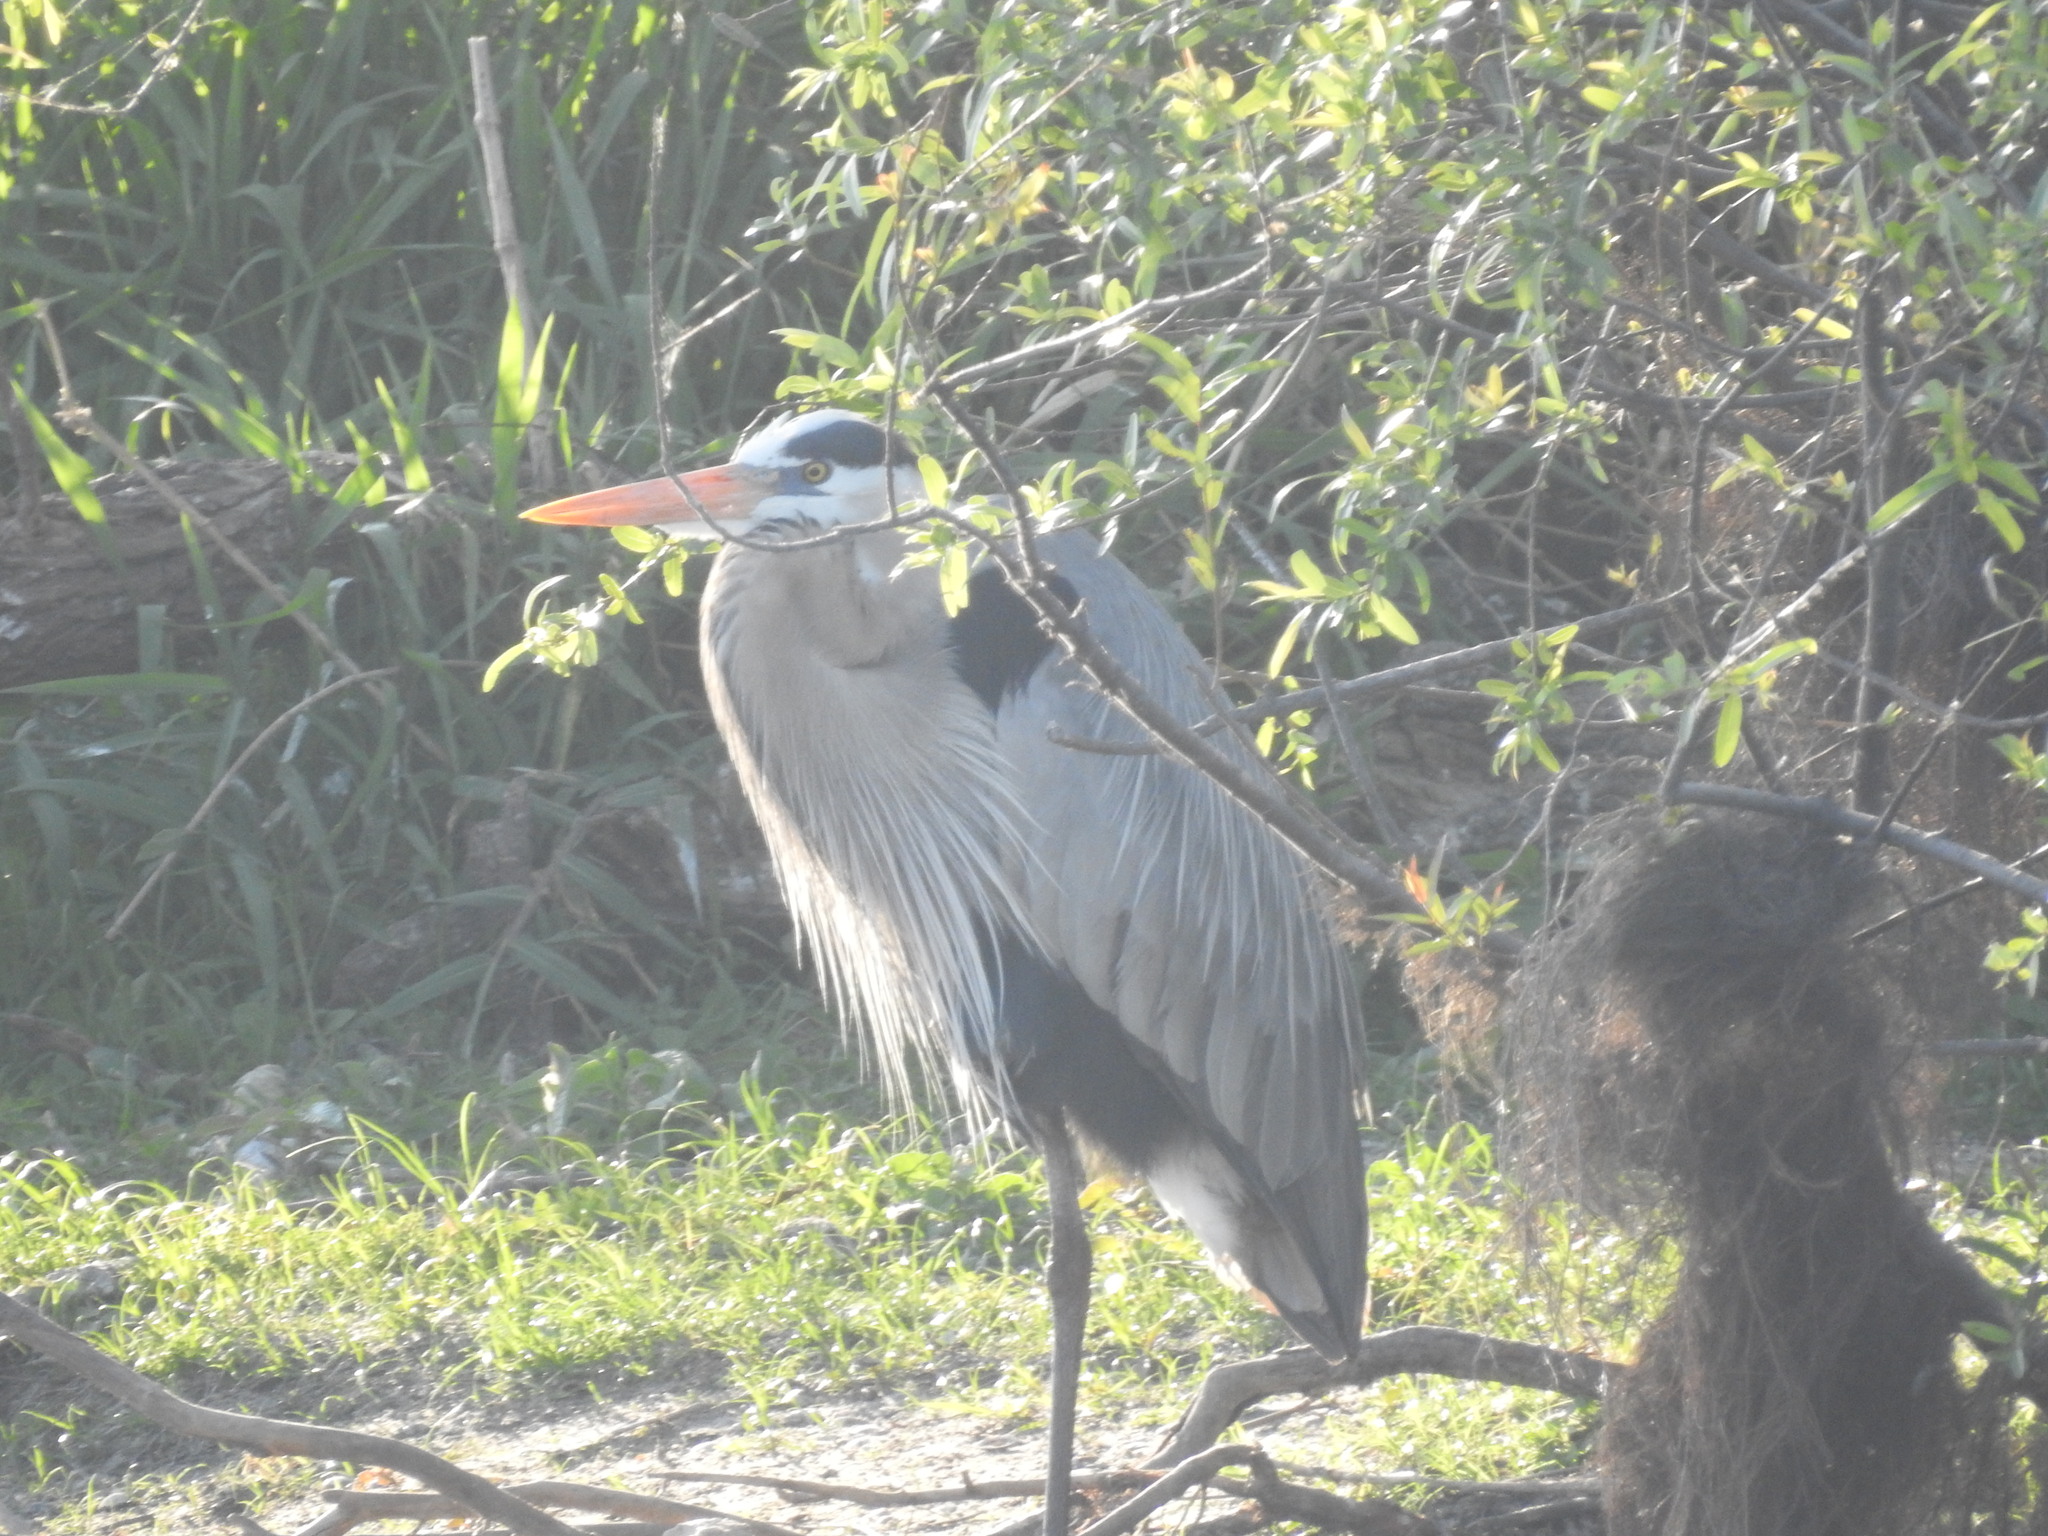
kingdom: Animalia
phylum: Chordata
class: Aves
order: Pelecaniformes
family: Ardeidae
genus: Ardea
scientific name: Ardea herodias
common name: Great blue heron
